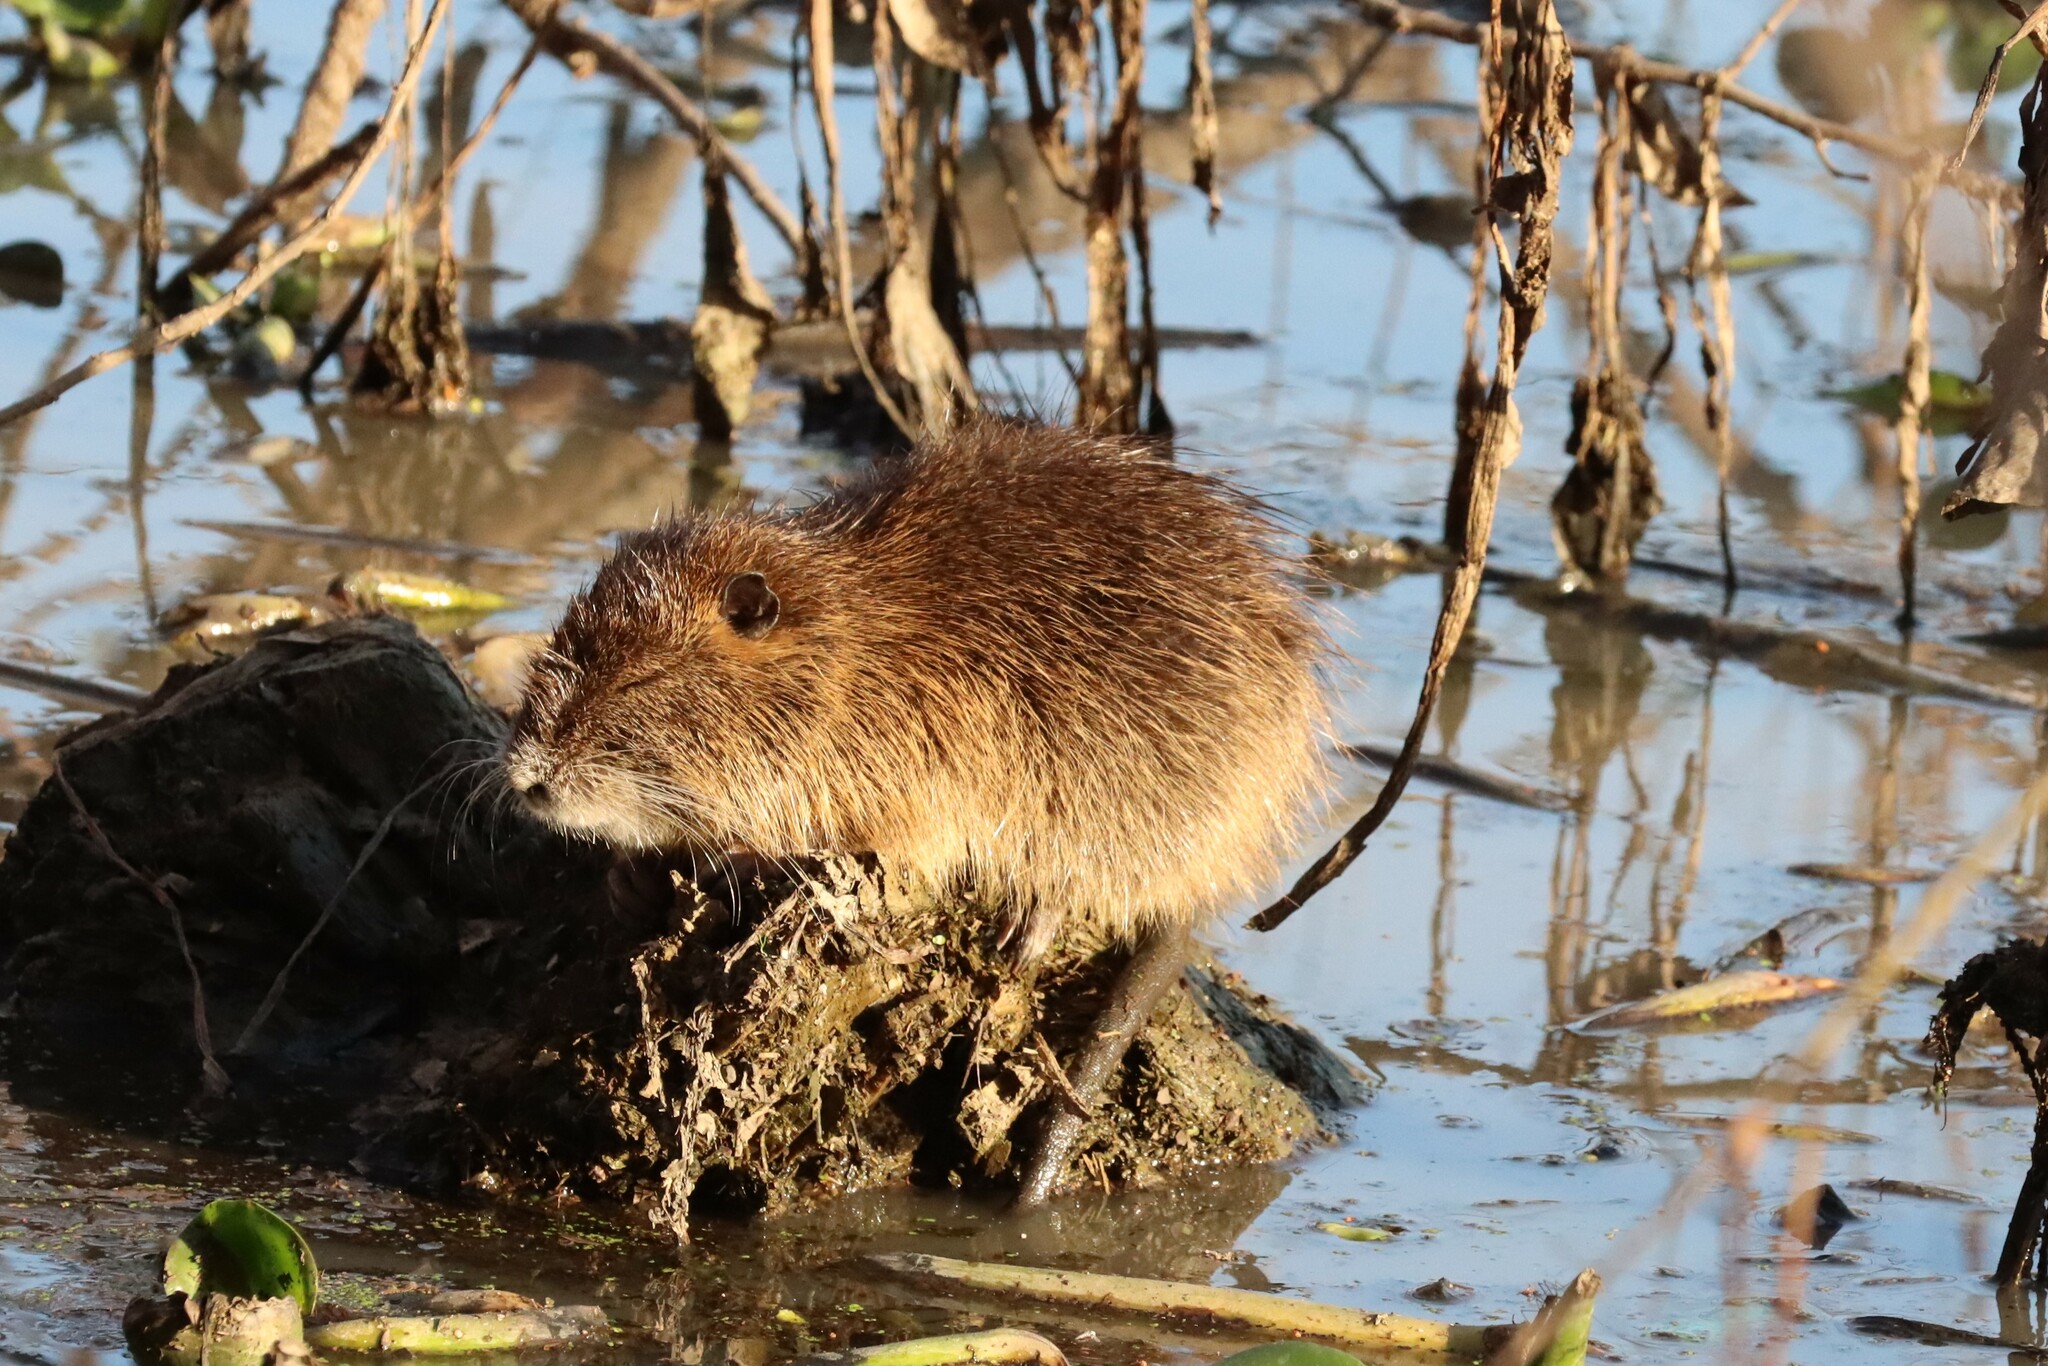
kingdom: Animalia
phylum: Chordata
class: Mammalia
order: Rodentia
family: Myocastoridae
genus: Myocastor
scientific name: Myocastor coypus
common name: Coypu
